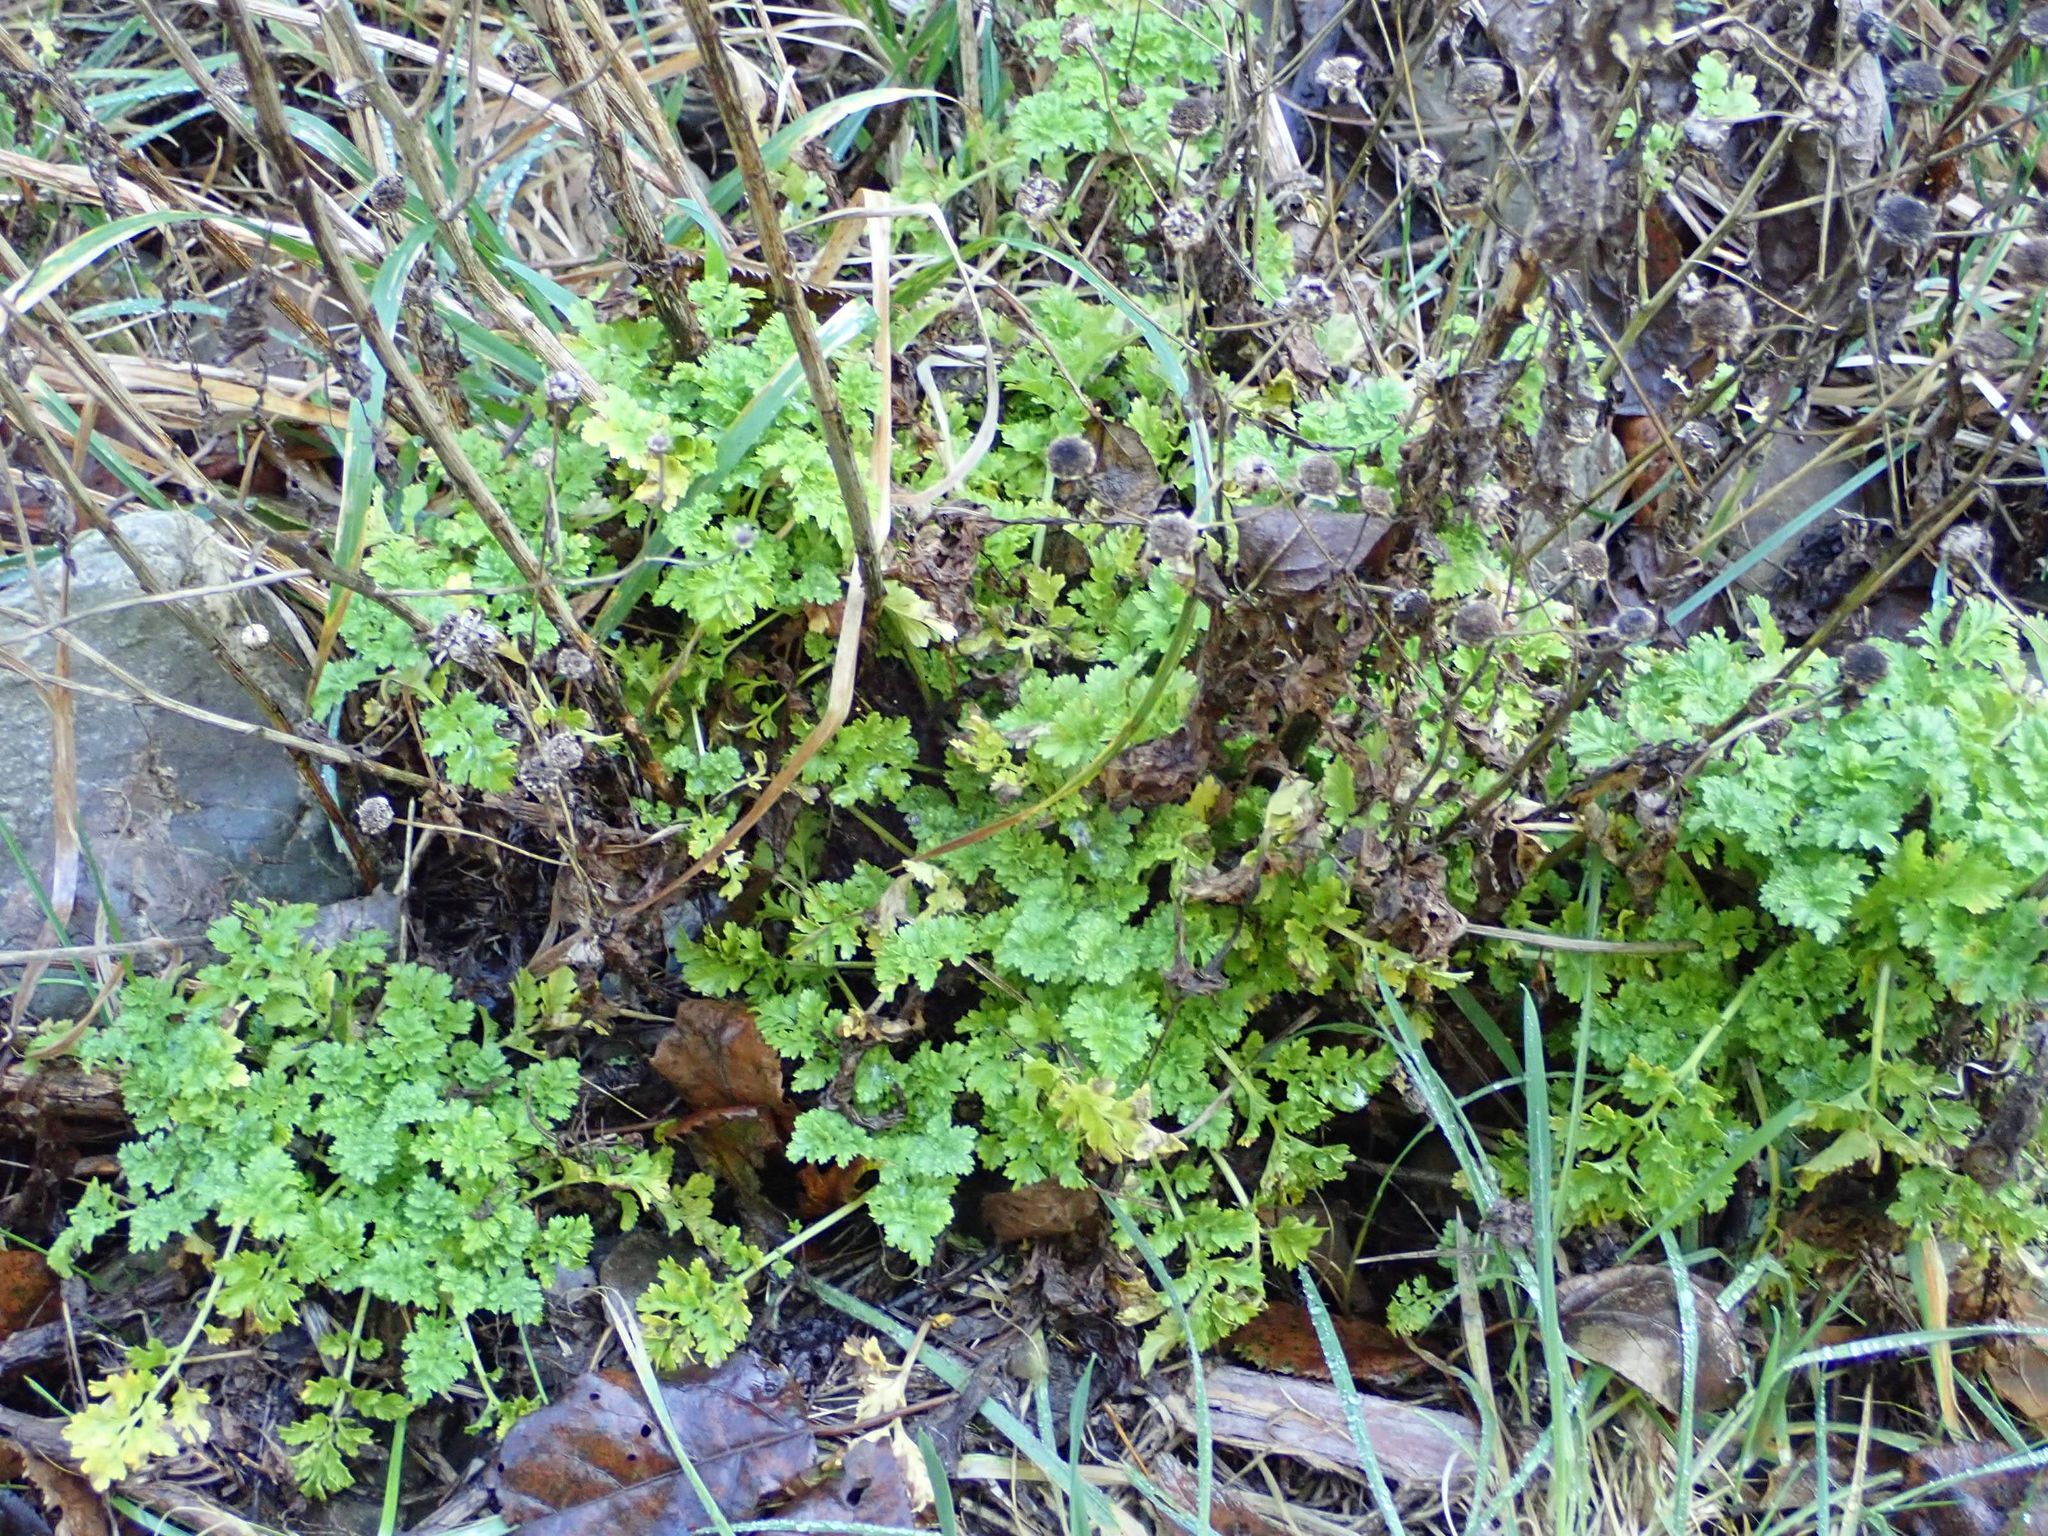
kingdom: Plantae
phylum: Tracheophyta
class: Magnoliopsida
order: Asterales
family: Asteraceae
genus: Tanacetum
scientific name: Tanacetum parthenium
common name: Feverfew
